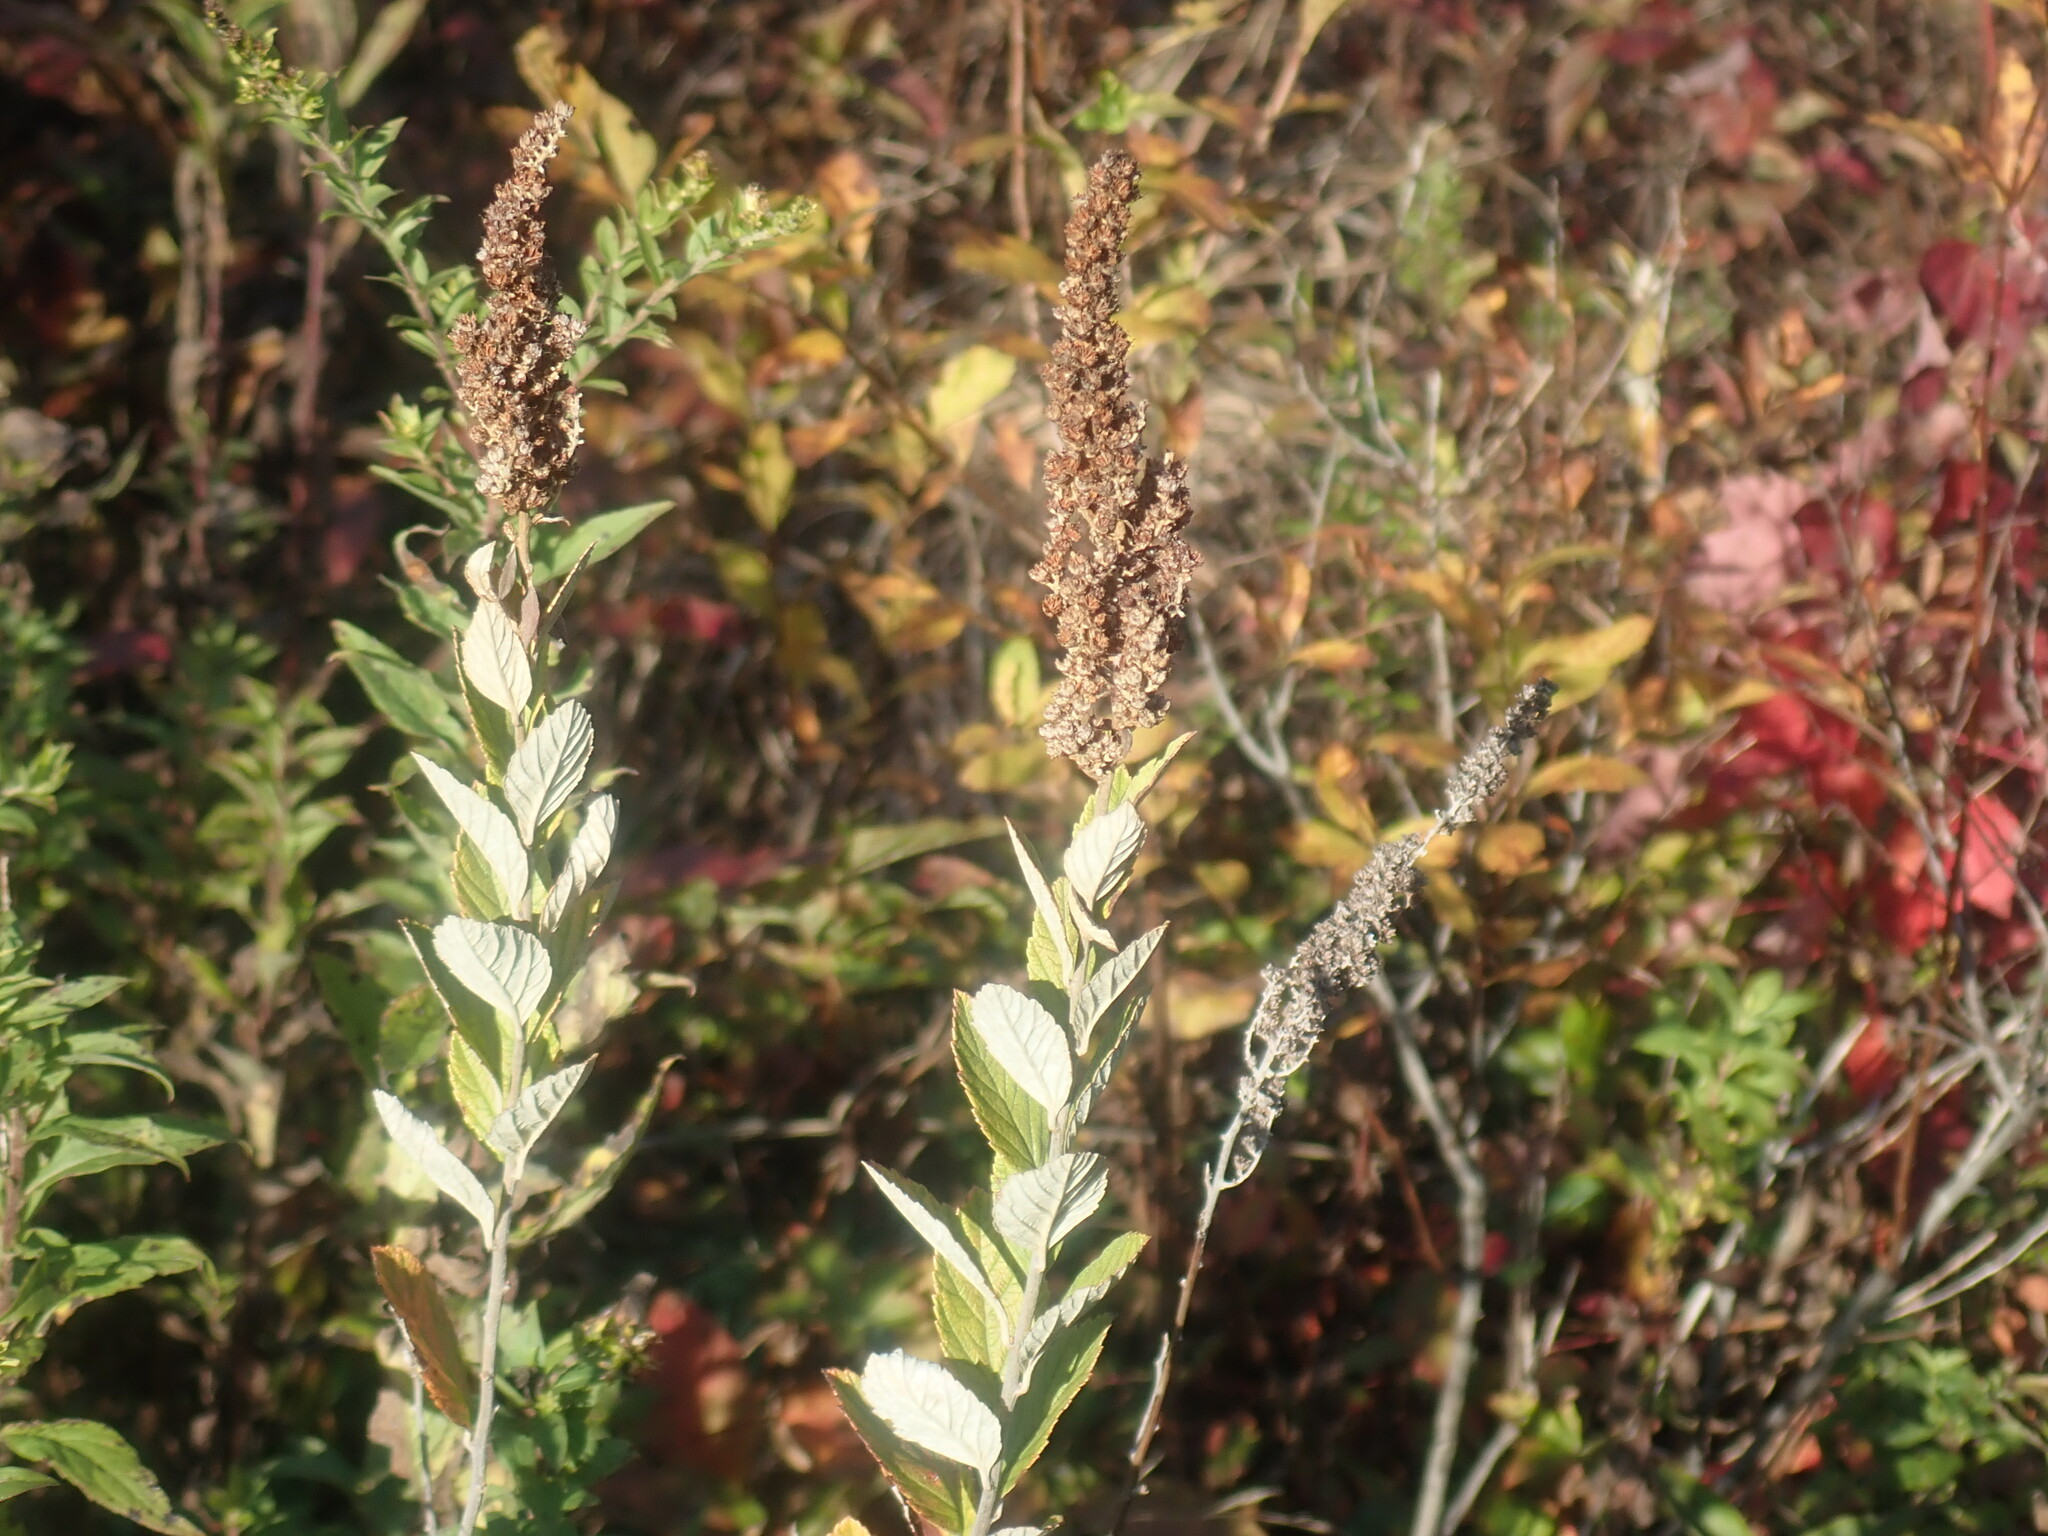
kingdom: Plantae
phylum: Tracheophyta
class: Magnoliopsida
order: Rosales
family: Rosaceae
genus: Spiraea
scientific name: Spiraea tomentosa
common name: Hardhack
